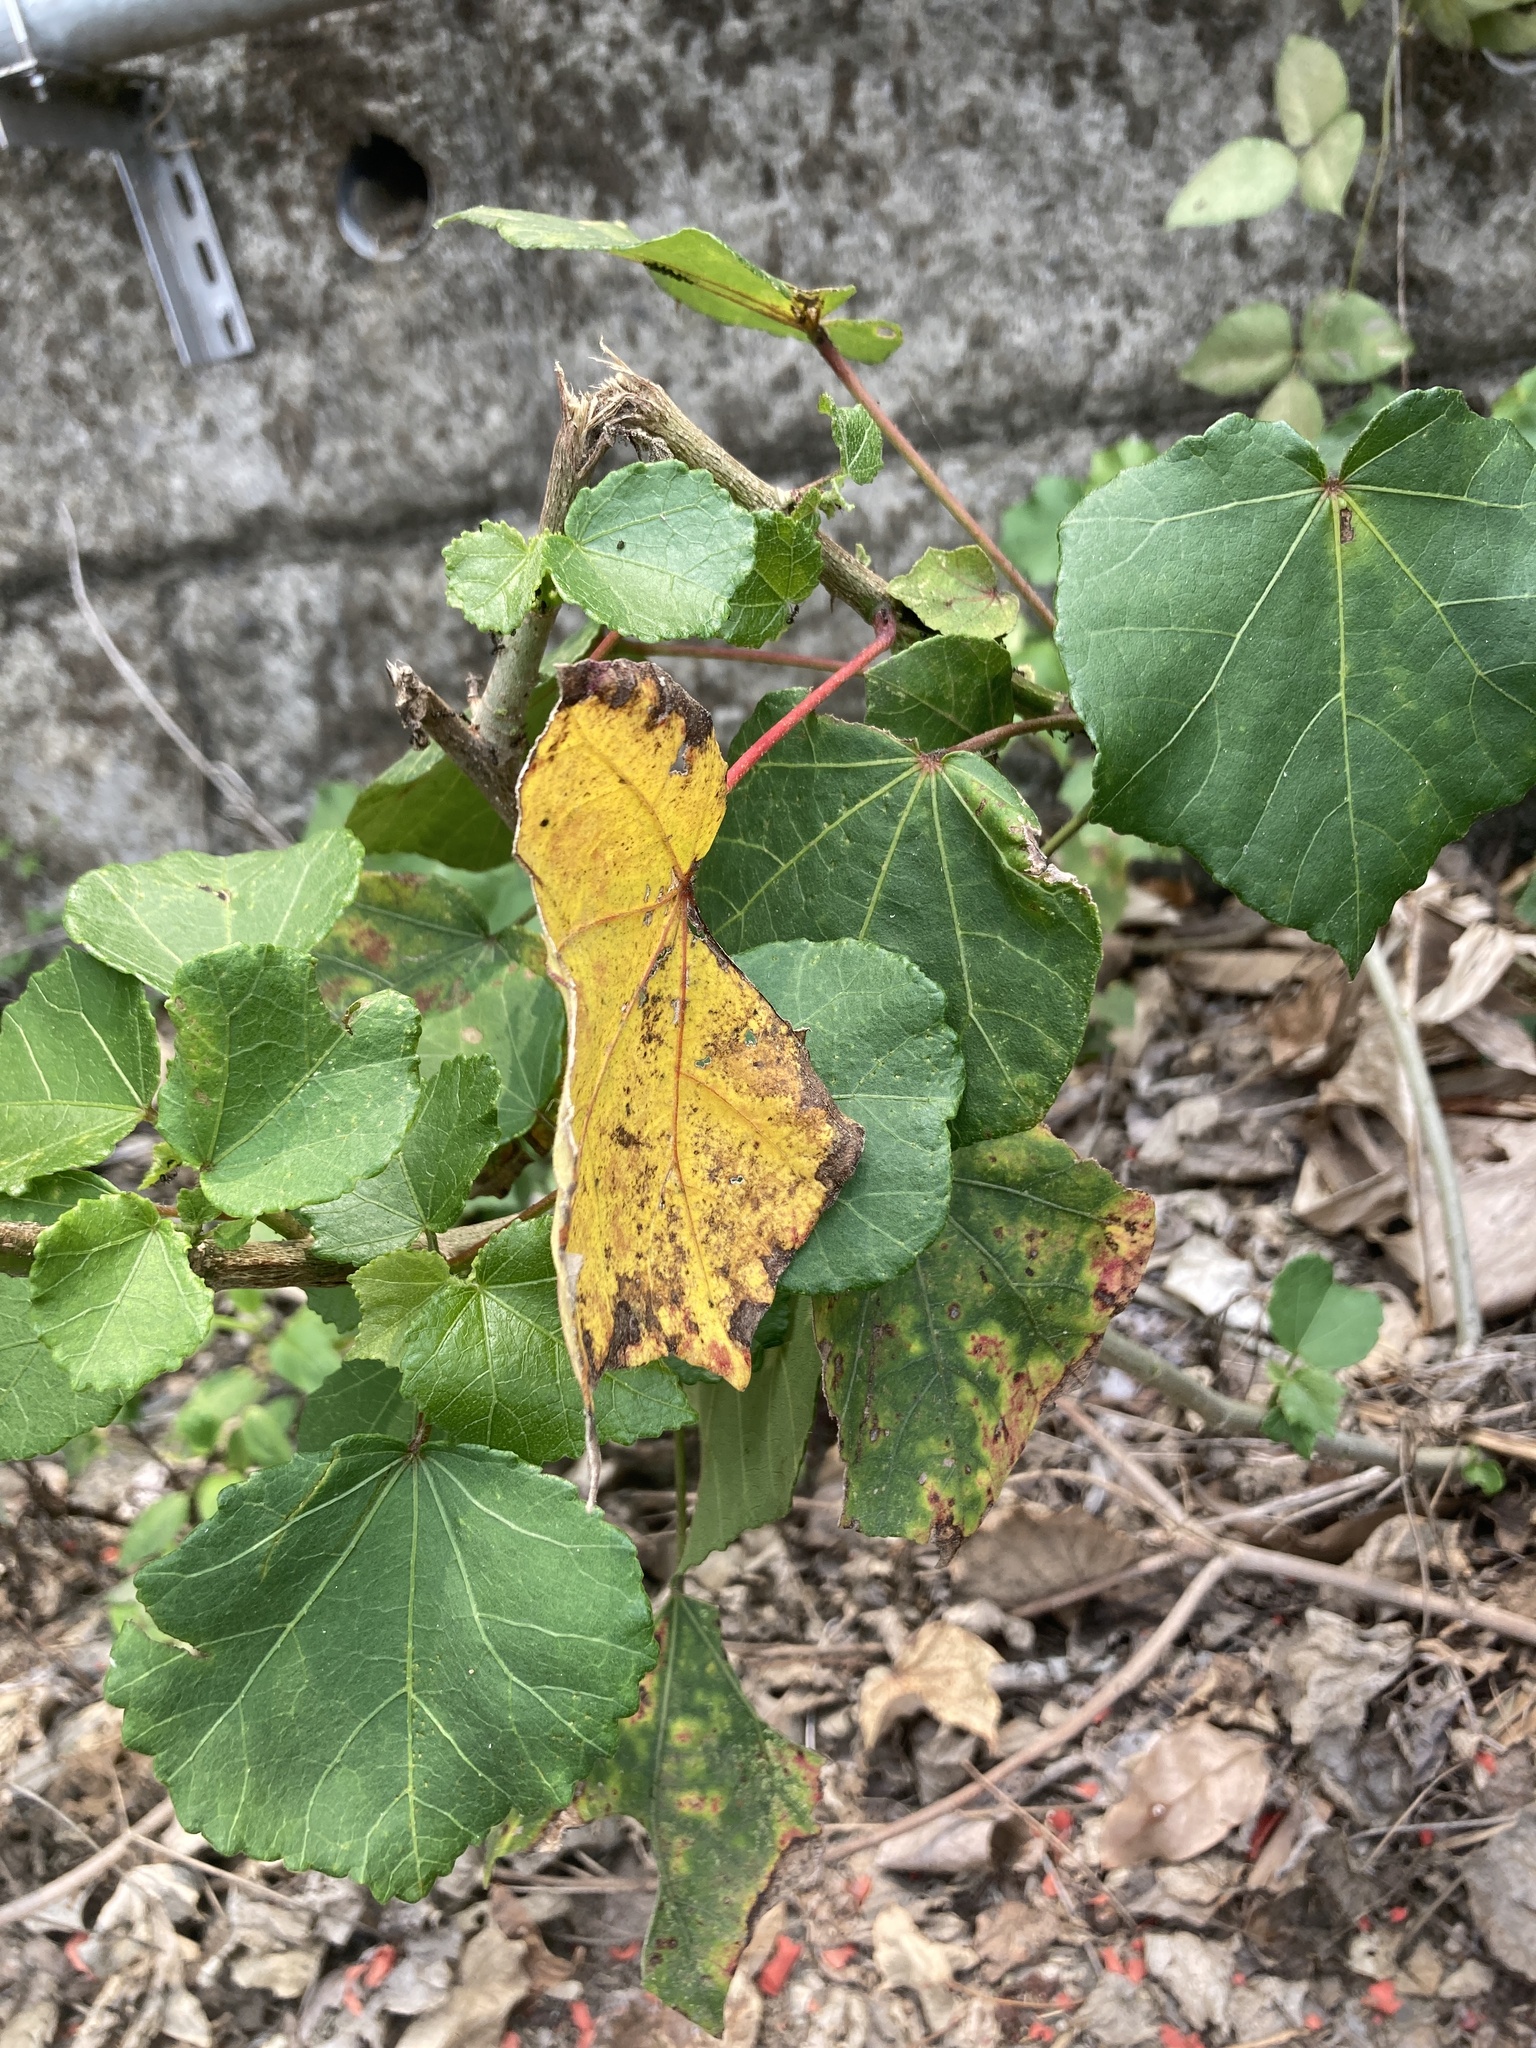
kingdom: Plantae
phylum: Tracheophyta
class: Magnoliopsida
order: Malvales
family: Malvaceae
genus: Hibiscus
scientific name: Hibiscus taiwanensis
